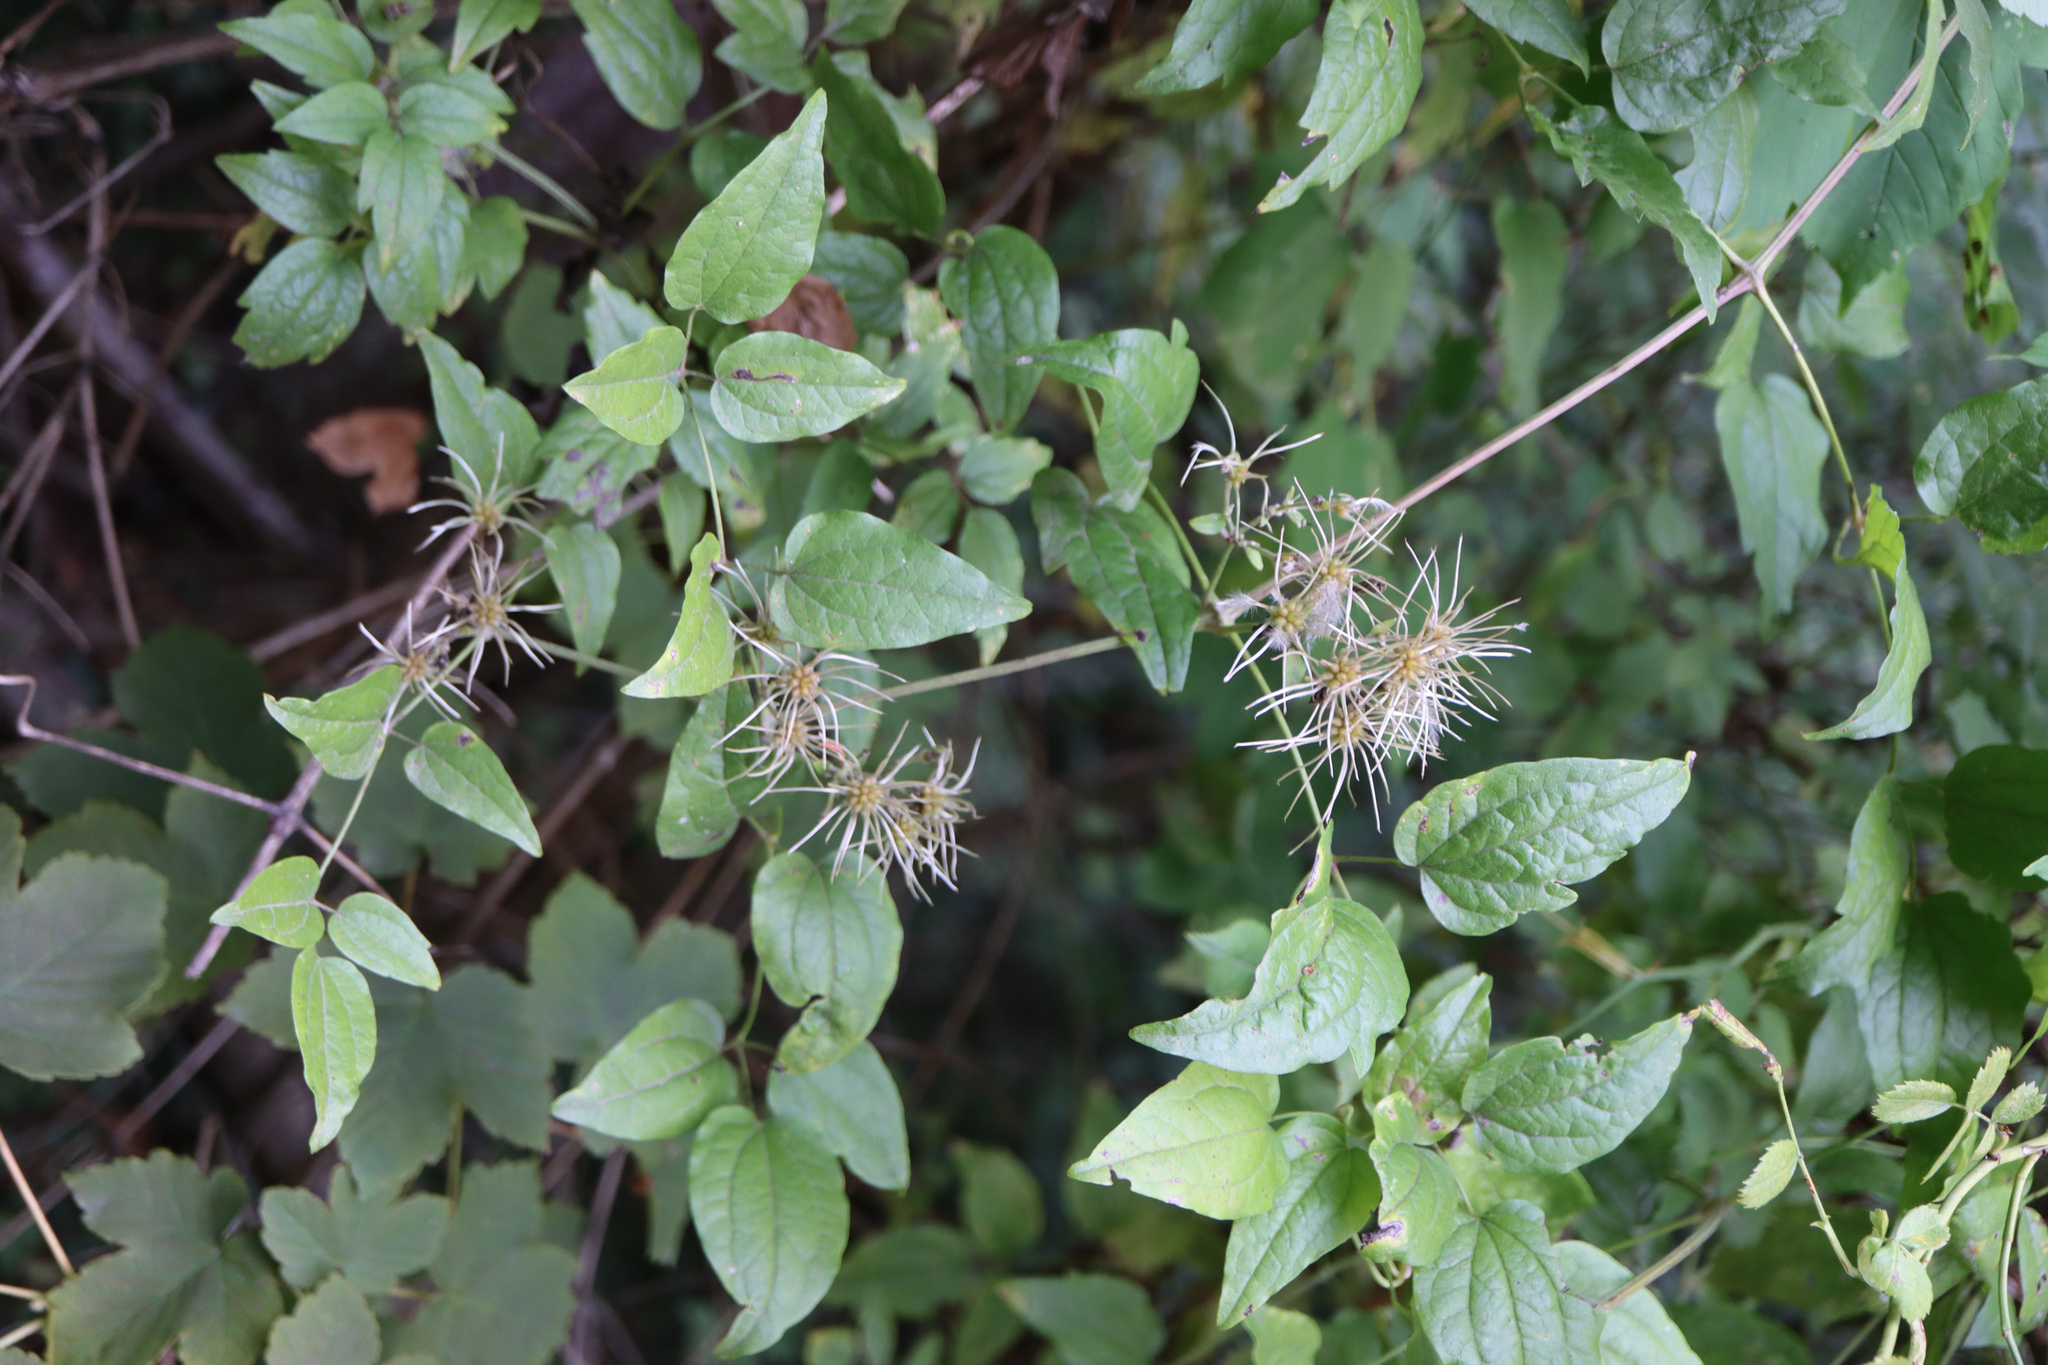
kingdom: Plantae
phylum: Tracheophyta
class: Magnoliopsida
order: Ranunculales
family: Ranunculaceae
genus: Clematis
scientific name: Clematis vitalba
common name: Evergreen clematis
